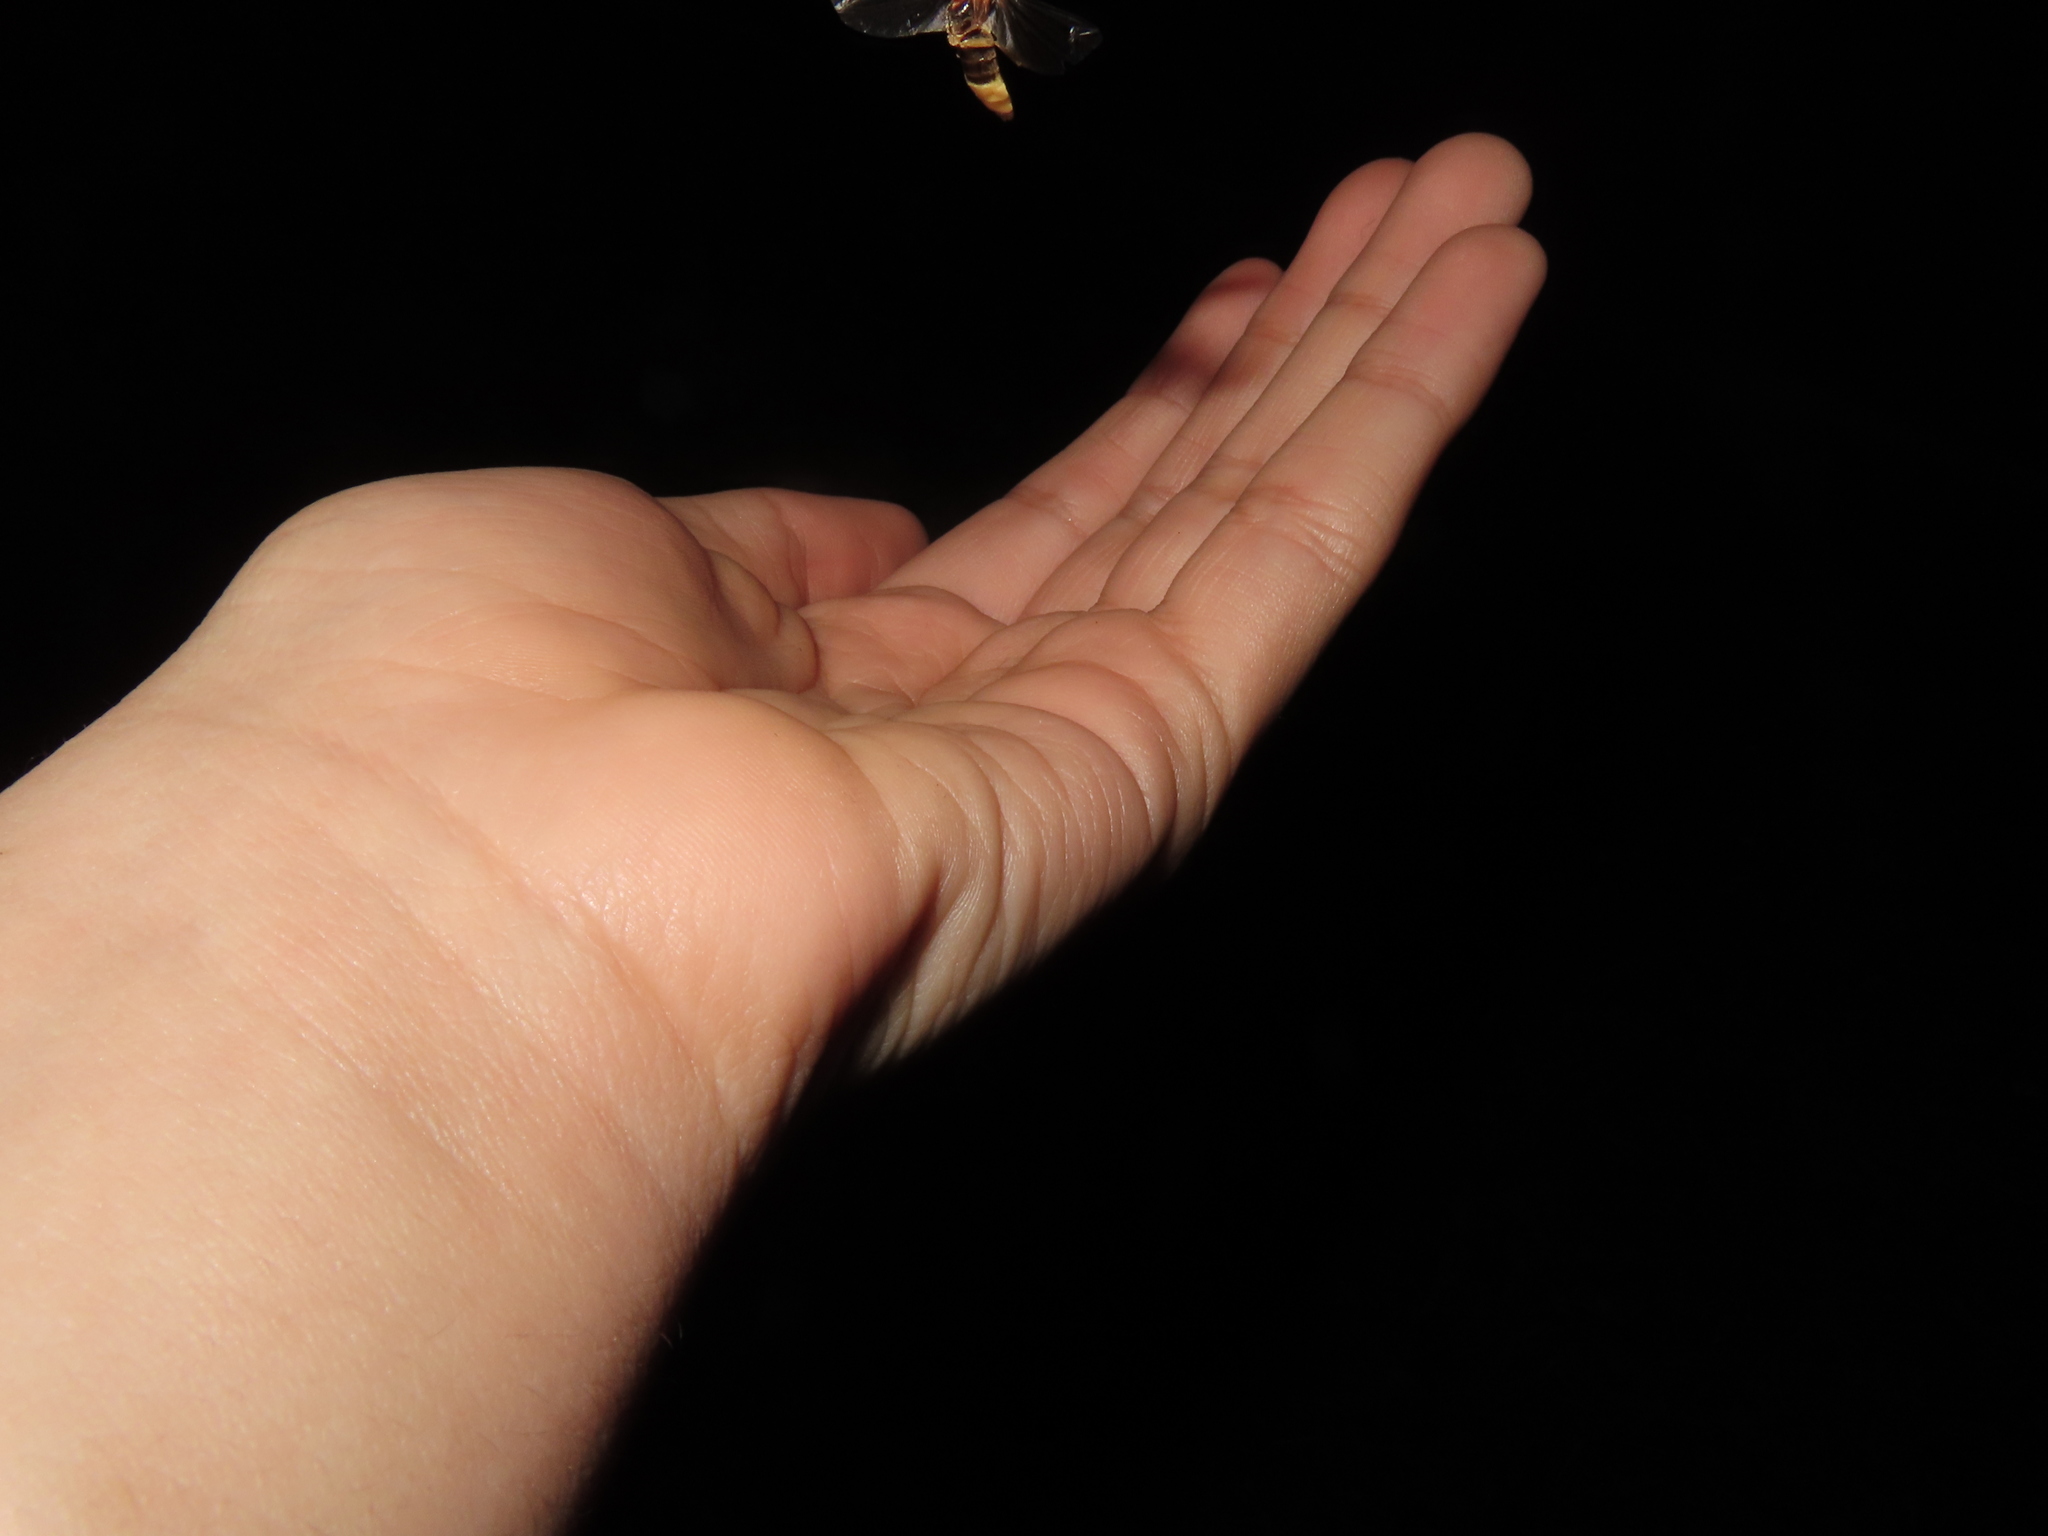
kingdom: Animalia
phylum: Arthropoda
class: Insecta
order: Coleoptera
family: Lampyridae
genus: Photinus
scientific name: Photinus pyralis
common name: Big dipper firefly
